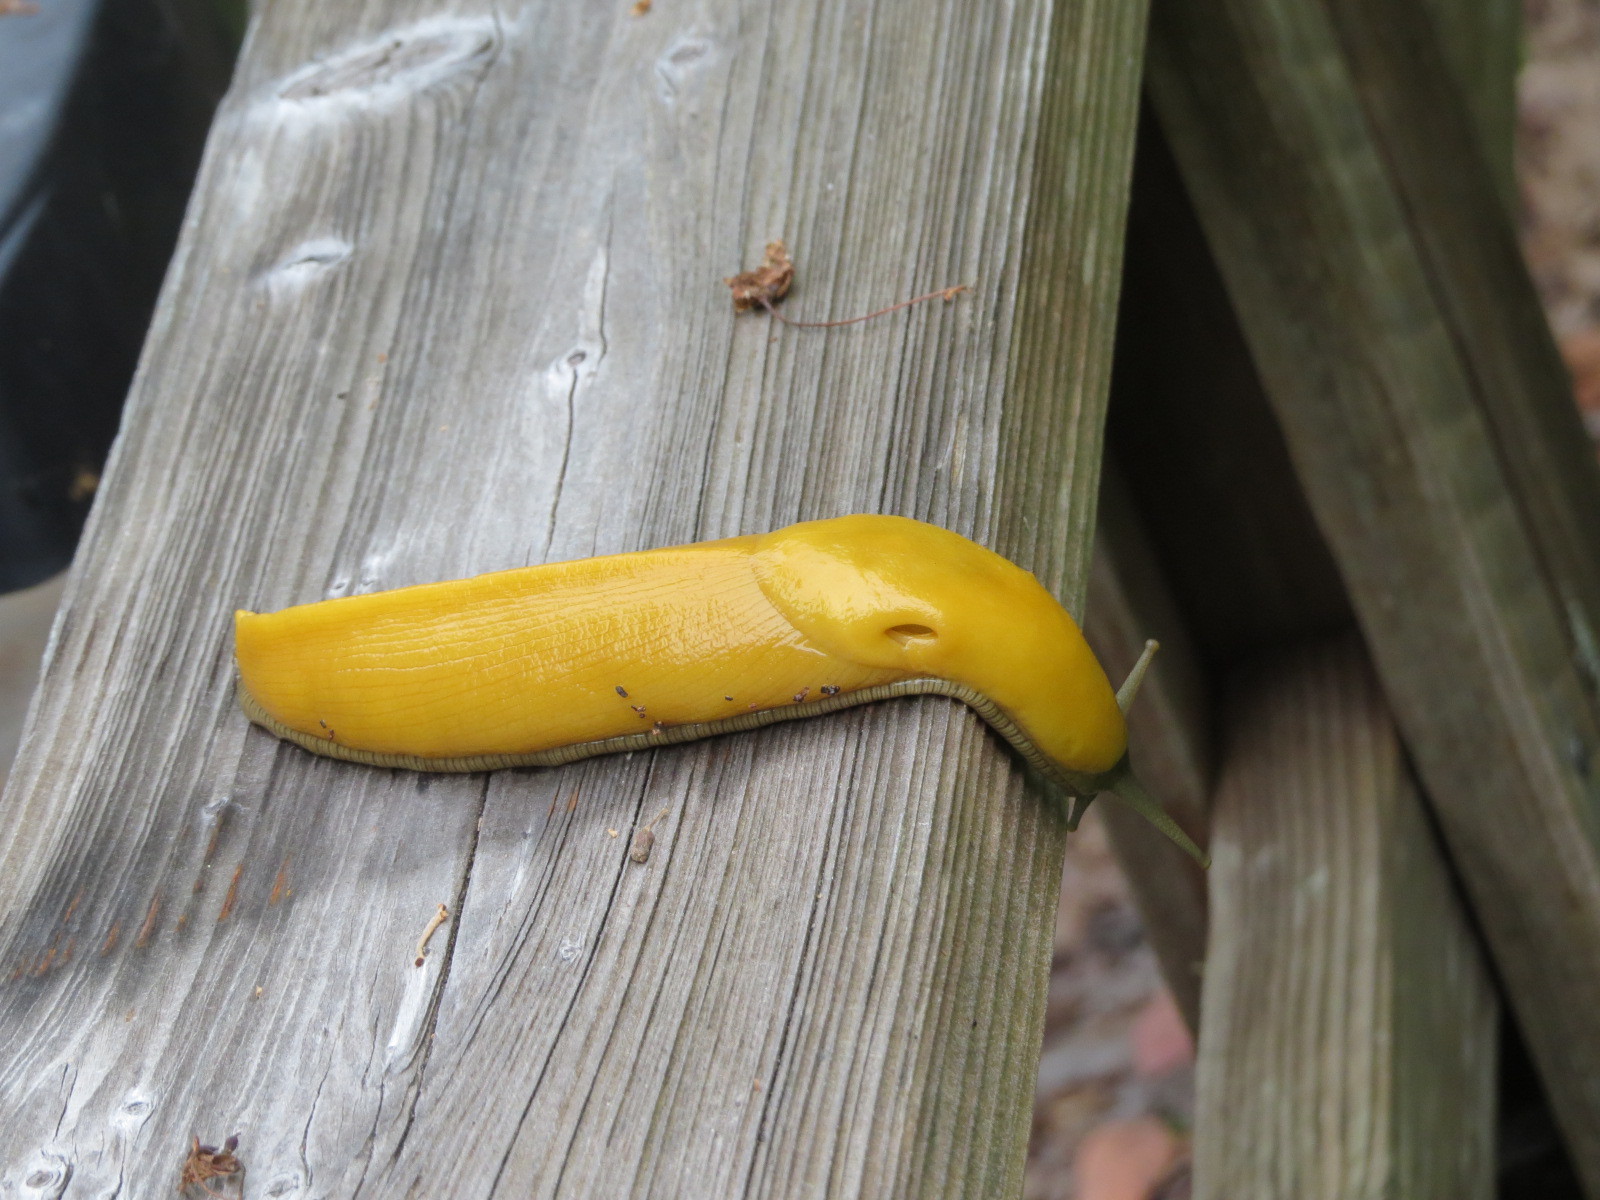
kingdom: Animalia
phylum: Mollusca
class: Gastropoda
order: Stylommatophora
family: Ariolimacidae
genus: Ariolimax
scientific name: Ariolimax californicus
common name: California banana slug
